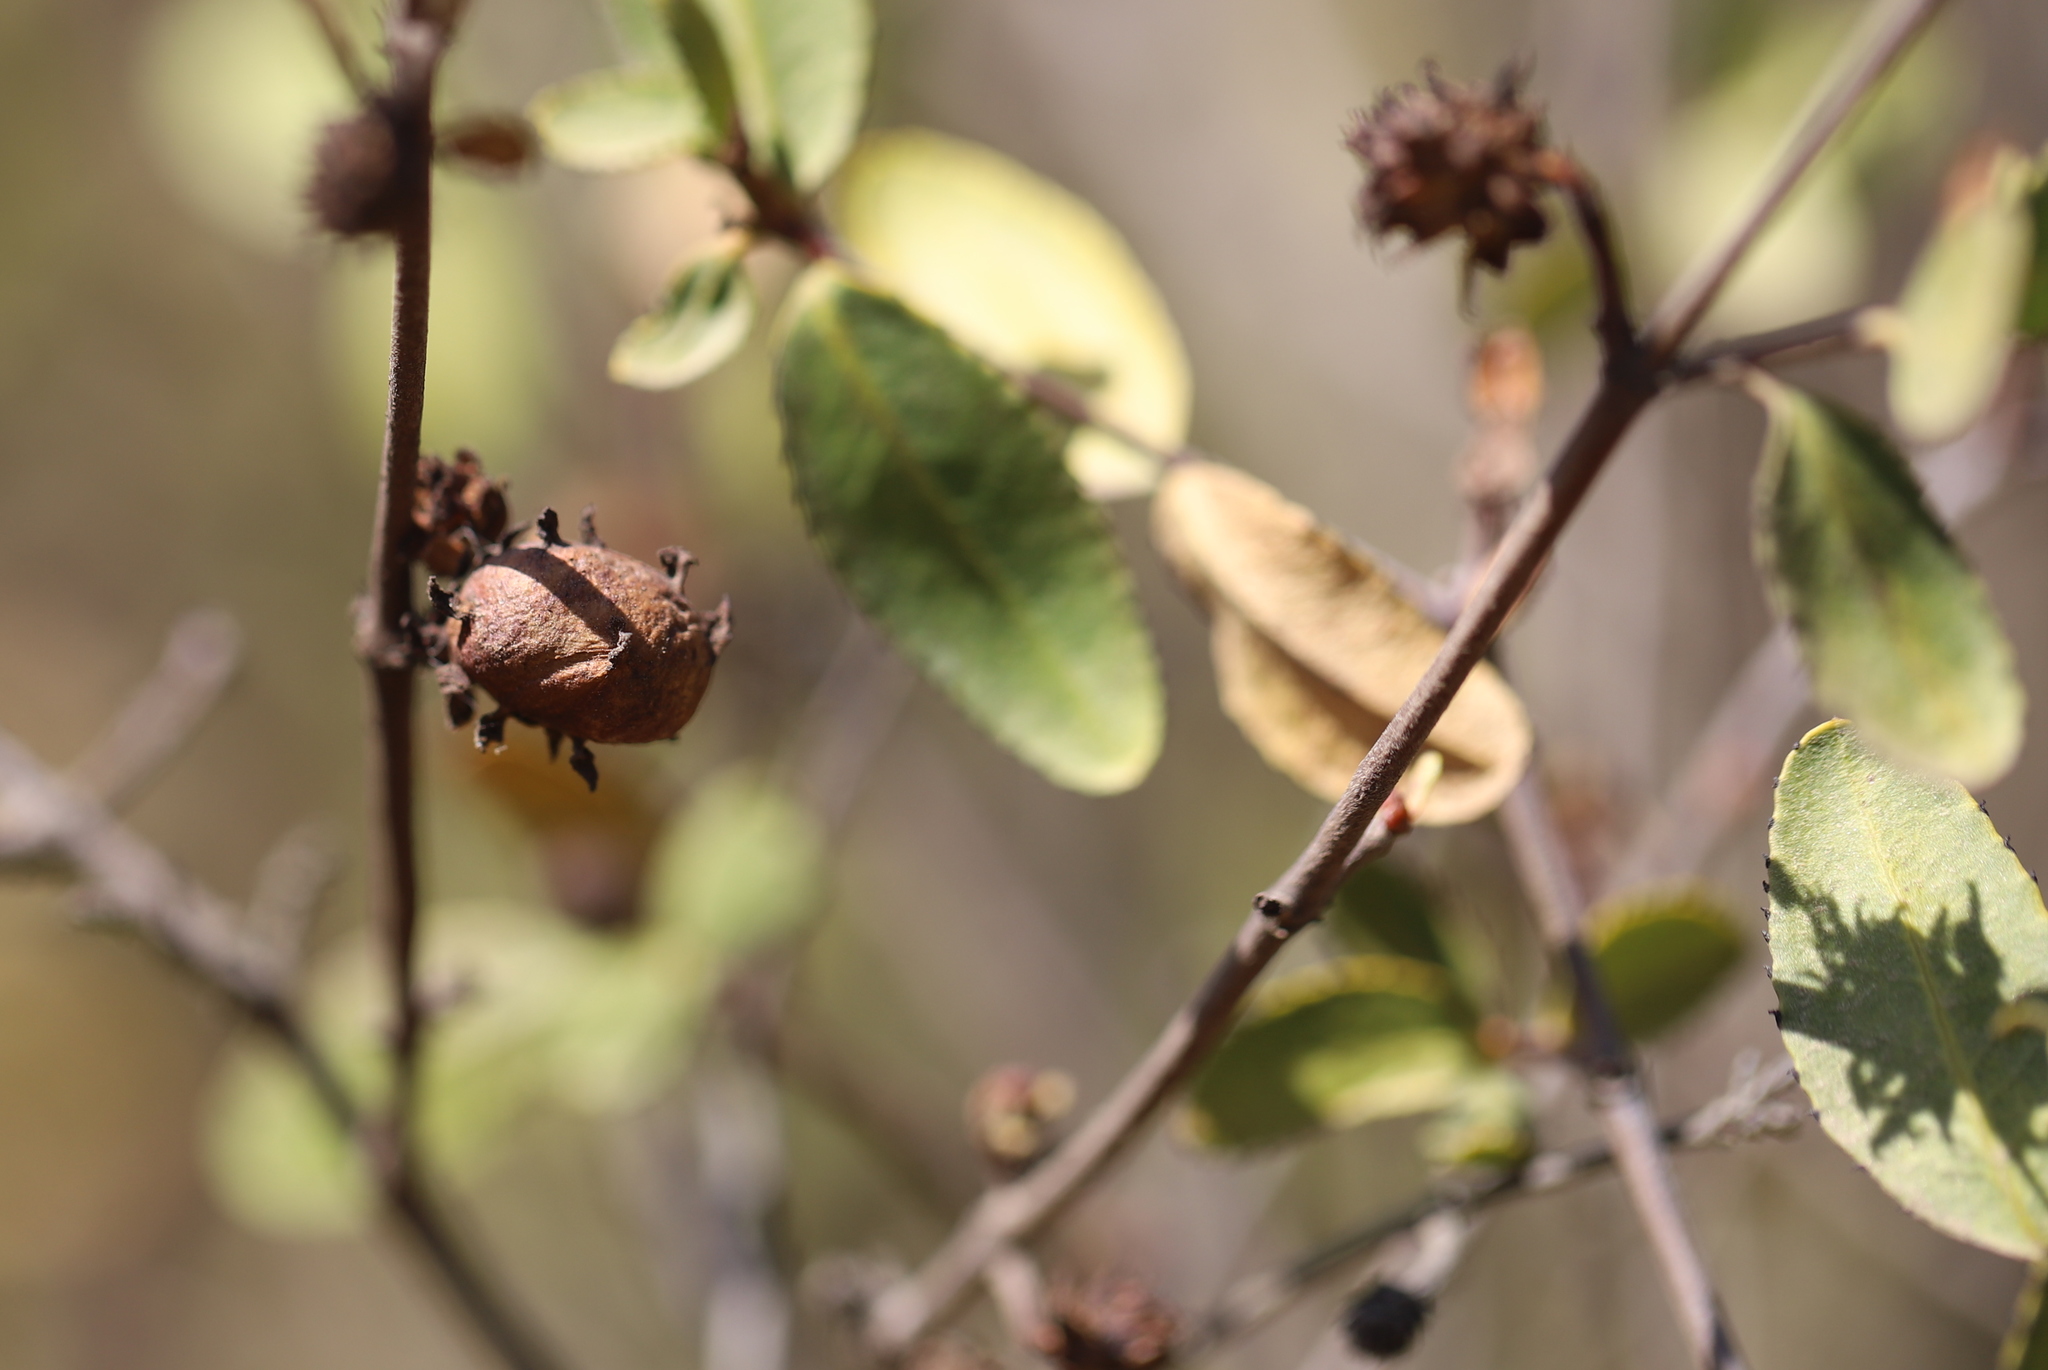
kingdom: Plantae
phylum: Tracheophyta
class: Magnoliopsida
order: Malpighiales
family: Euphorbiaceae
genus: Colliguaja
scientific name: Colliguaja odorifera
